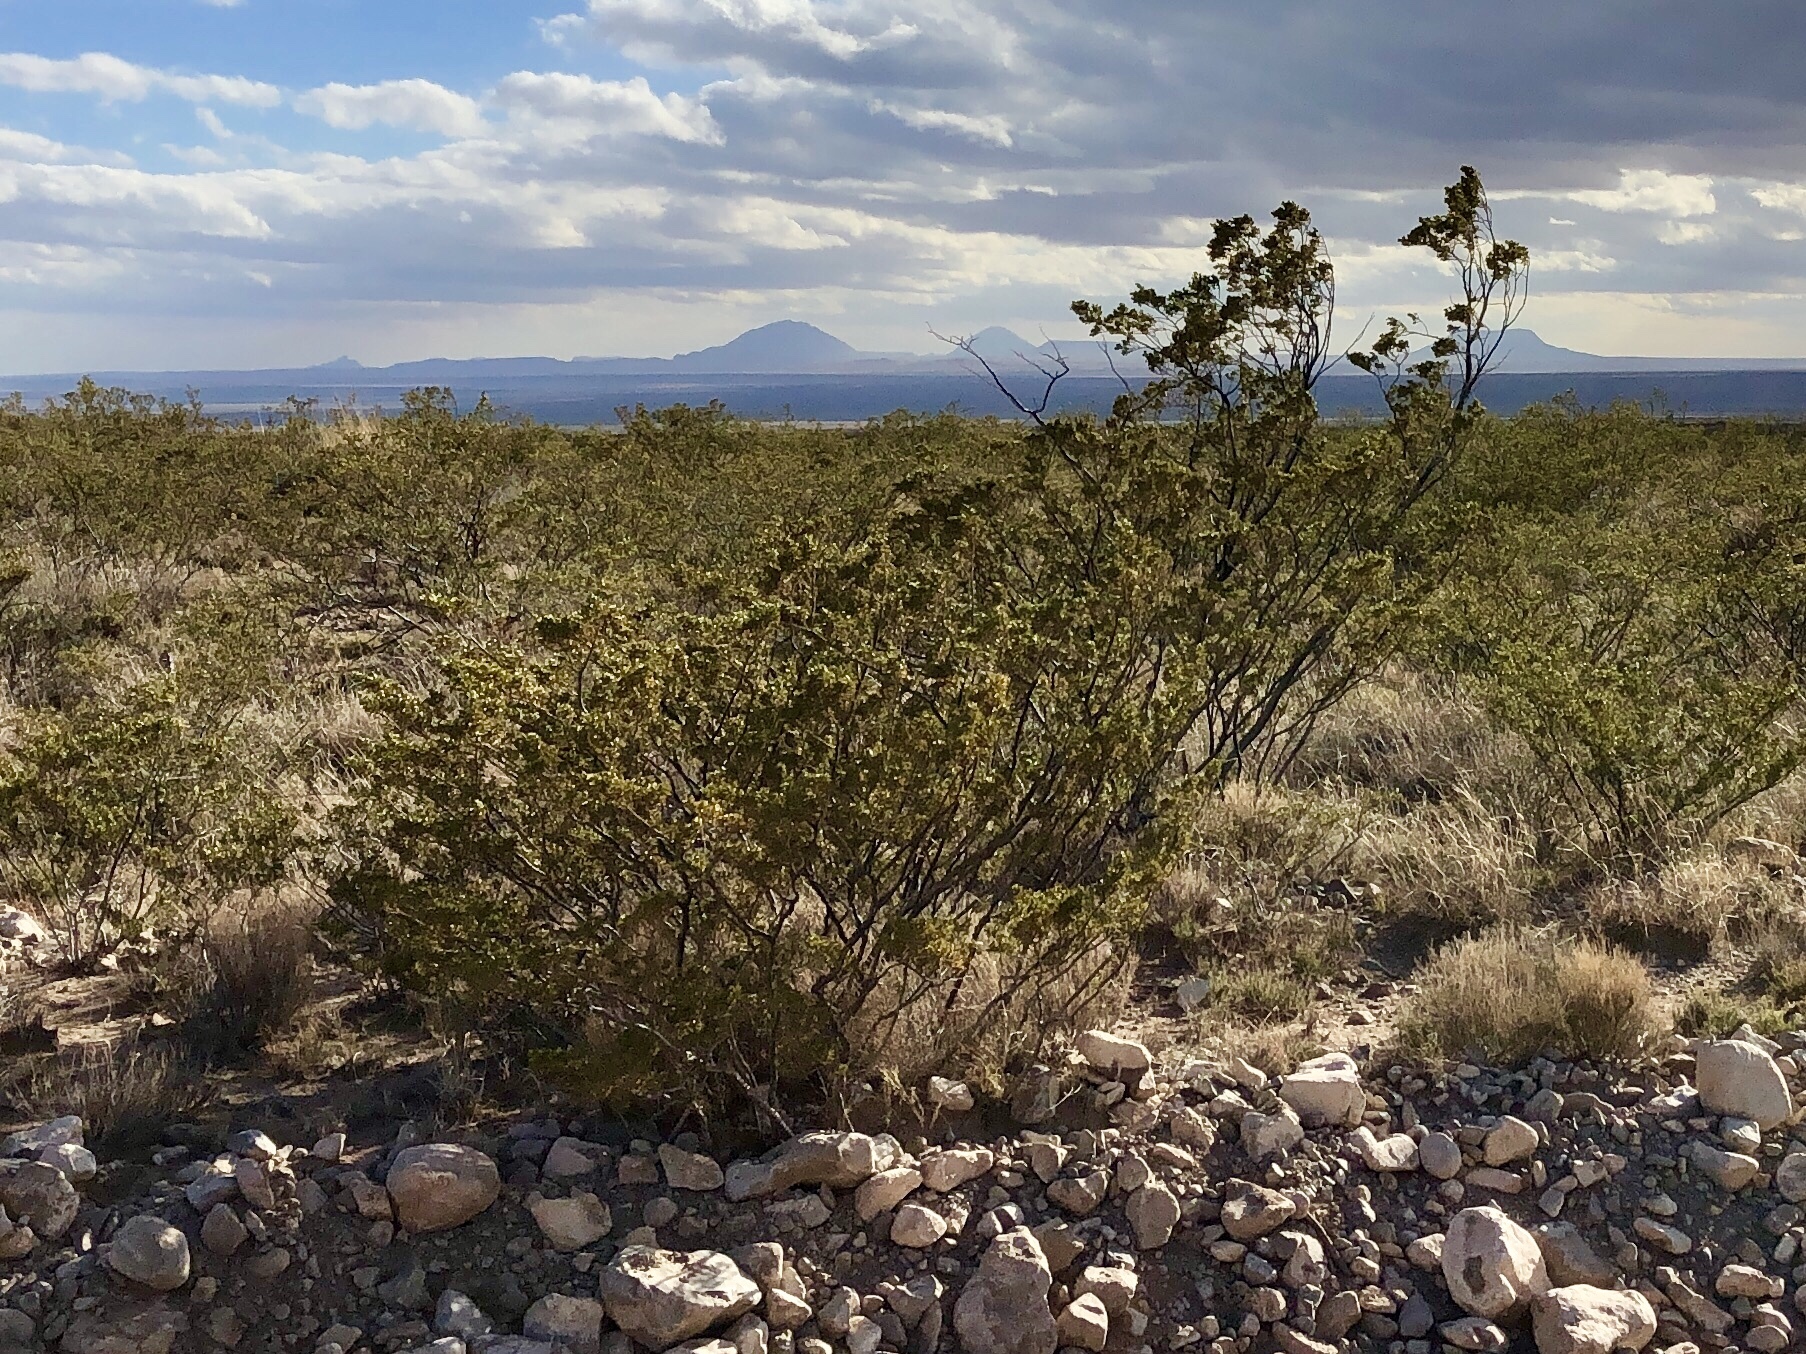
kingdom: Plantae
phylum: Tracheophyta
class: Magnoliopsida
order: Zygophyllales
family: Zygophyllaceae
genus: Larrea
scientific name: Larrea tridentata
